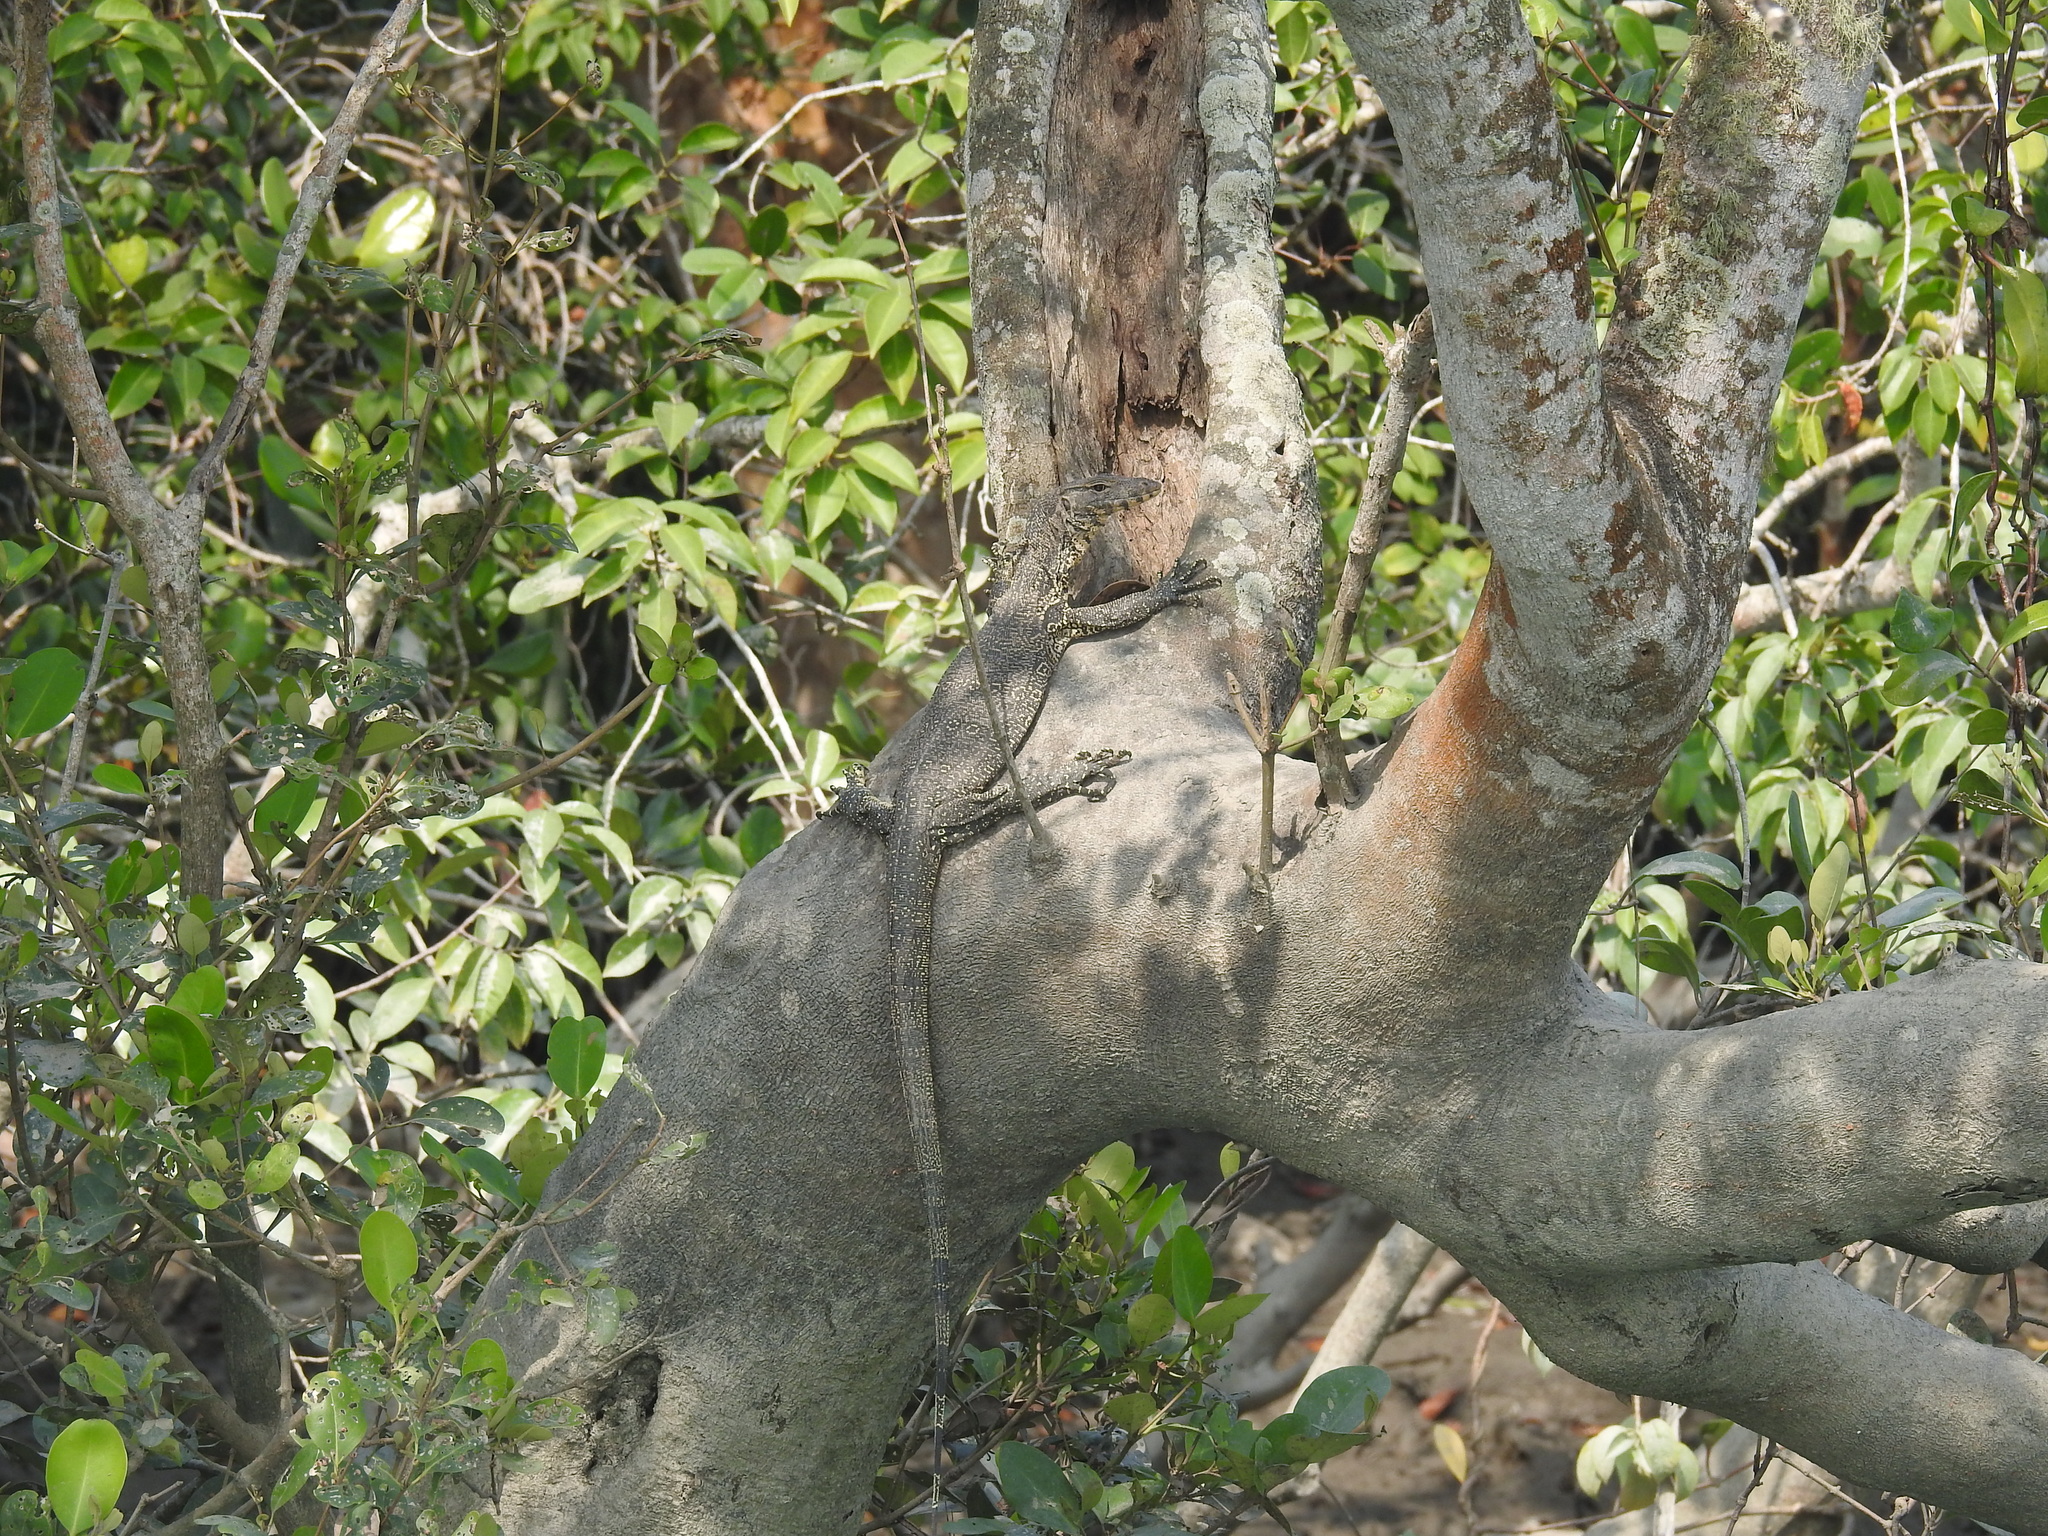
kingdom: Animalia
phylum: Chordata
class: Squamata
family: Varanidae
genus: Varanus
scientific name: Varanus salvator
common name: Common water monitor
